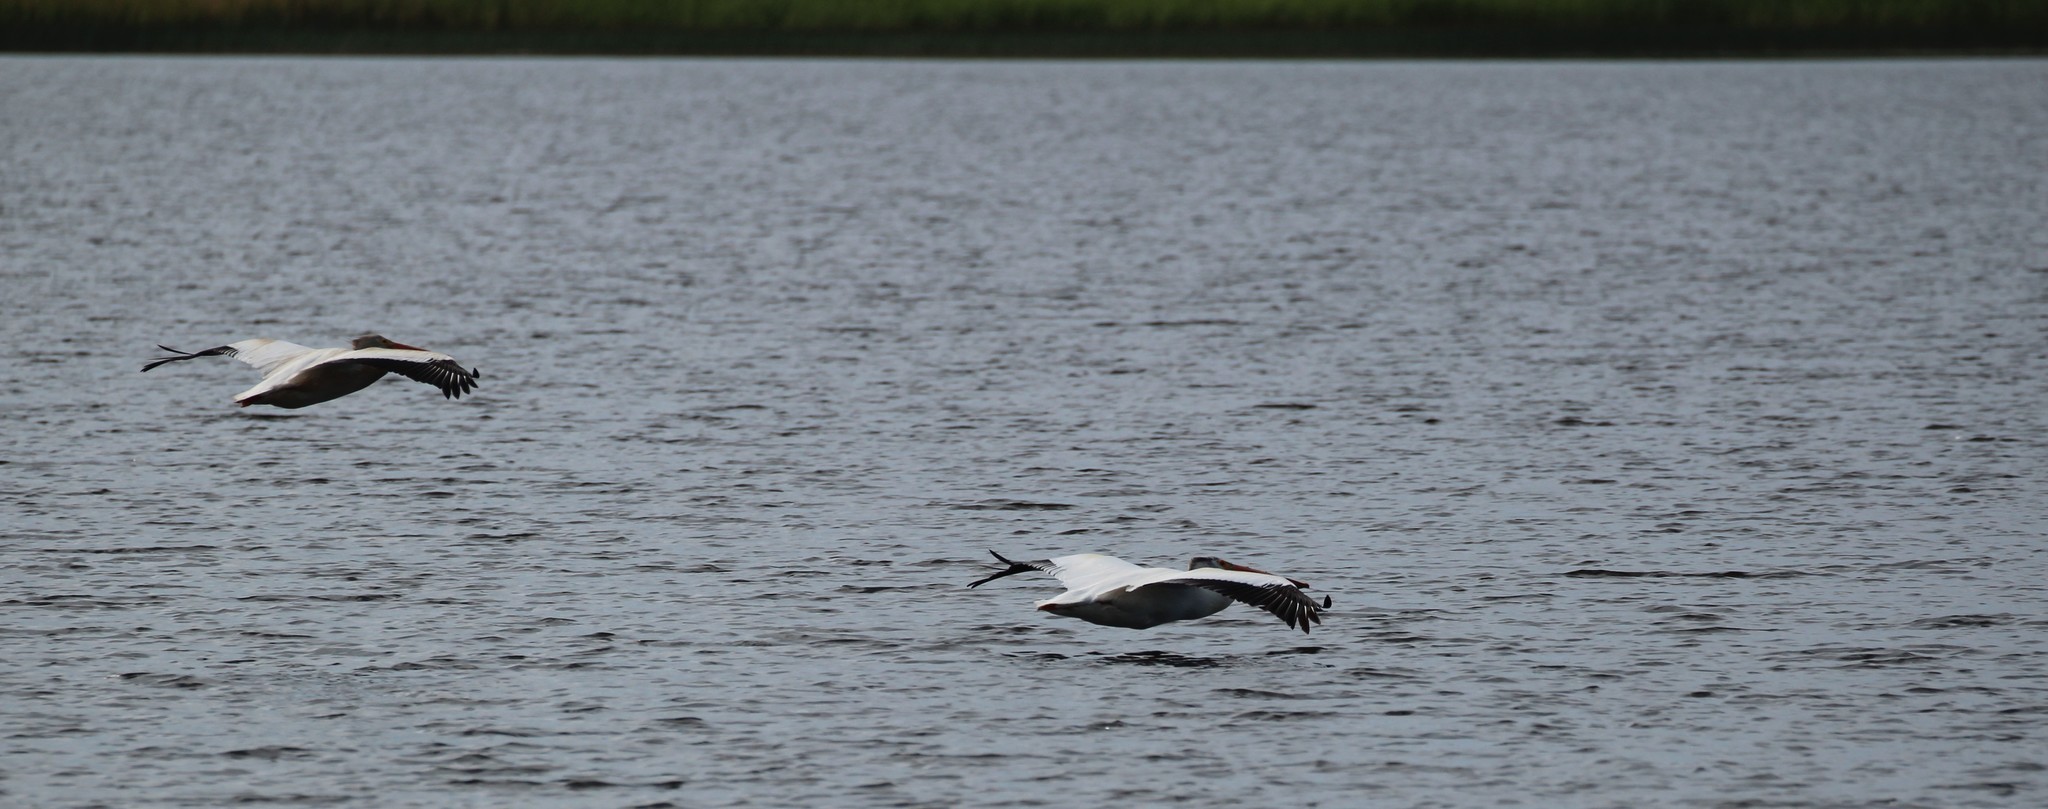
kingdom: Animalia
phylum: Chordata
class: Aves
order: Pelecaniformes
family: Pelecanidae
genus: Pelecanus
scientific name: Pelecanus erythrorhynchos
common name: American white pelican
